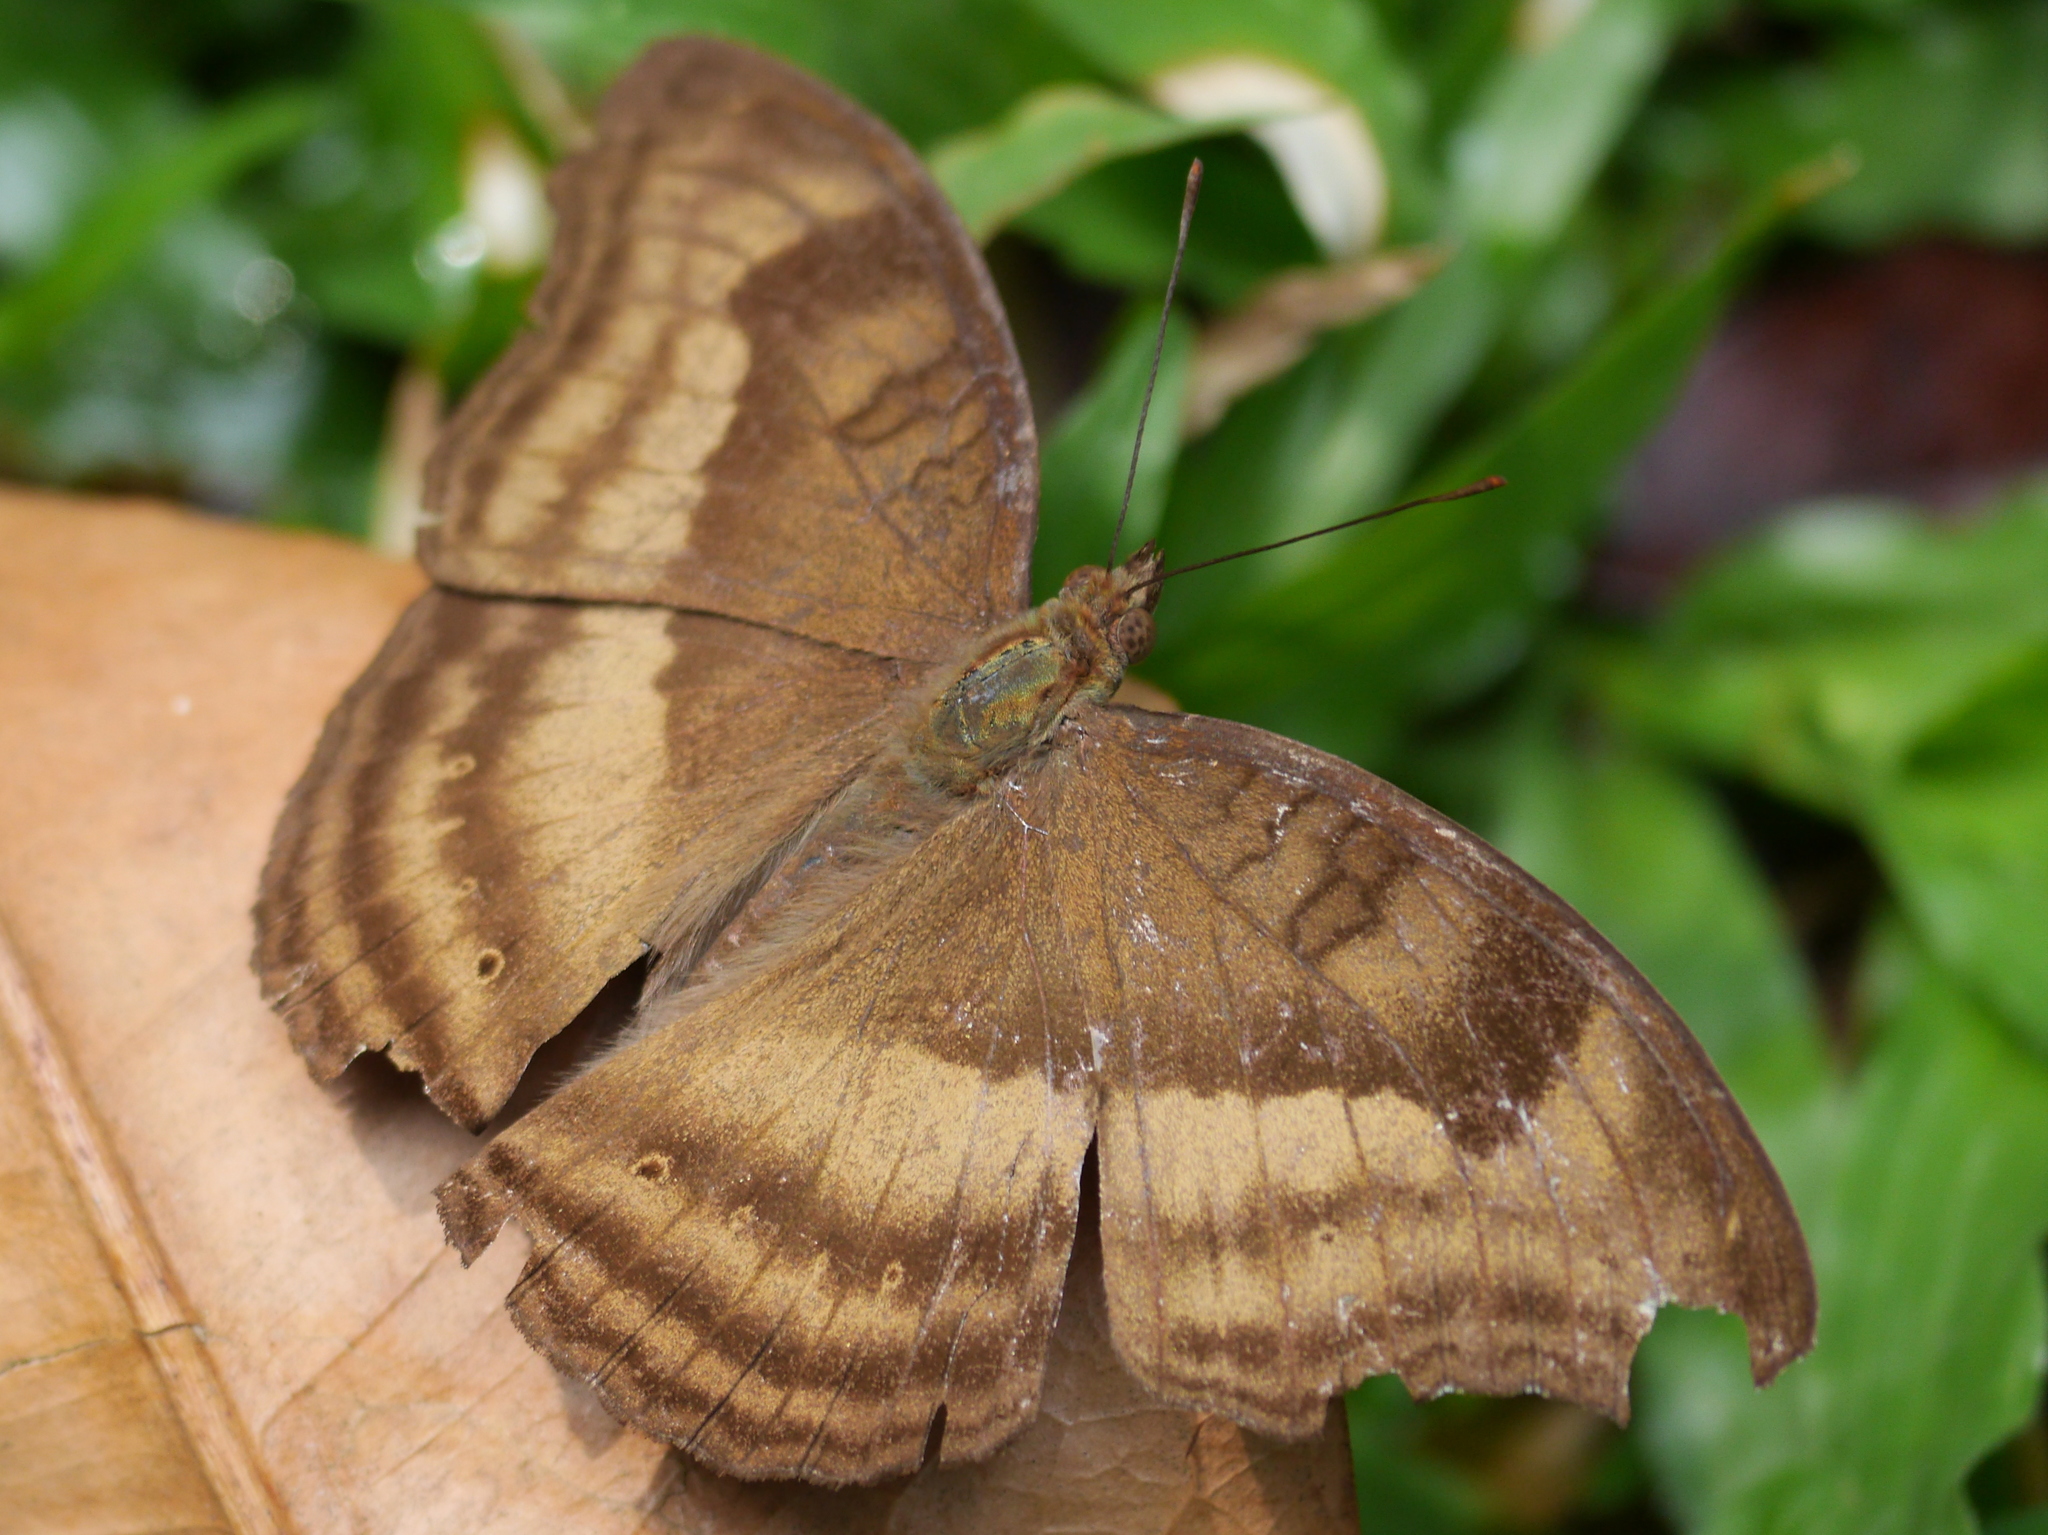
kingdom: Animalia
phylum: Arthropoda
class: Insecta
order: Lepidoptera
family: Nymphalidae
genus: Junonia
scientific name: Junonia iphita
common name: Chocolate pansy
